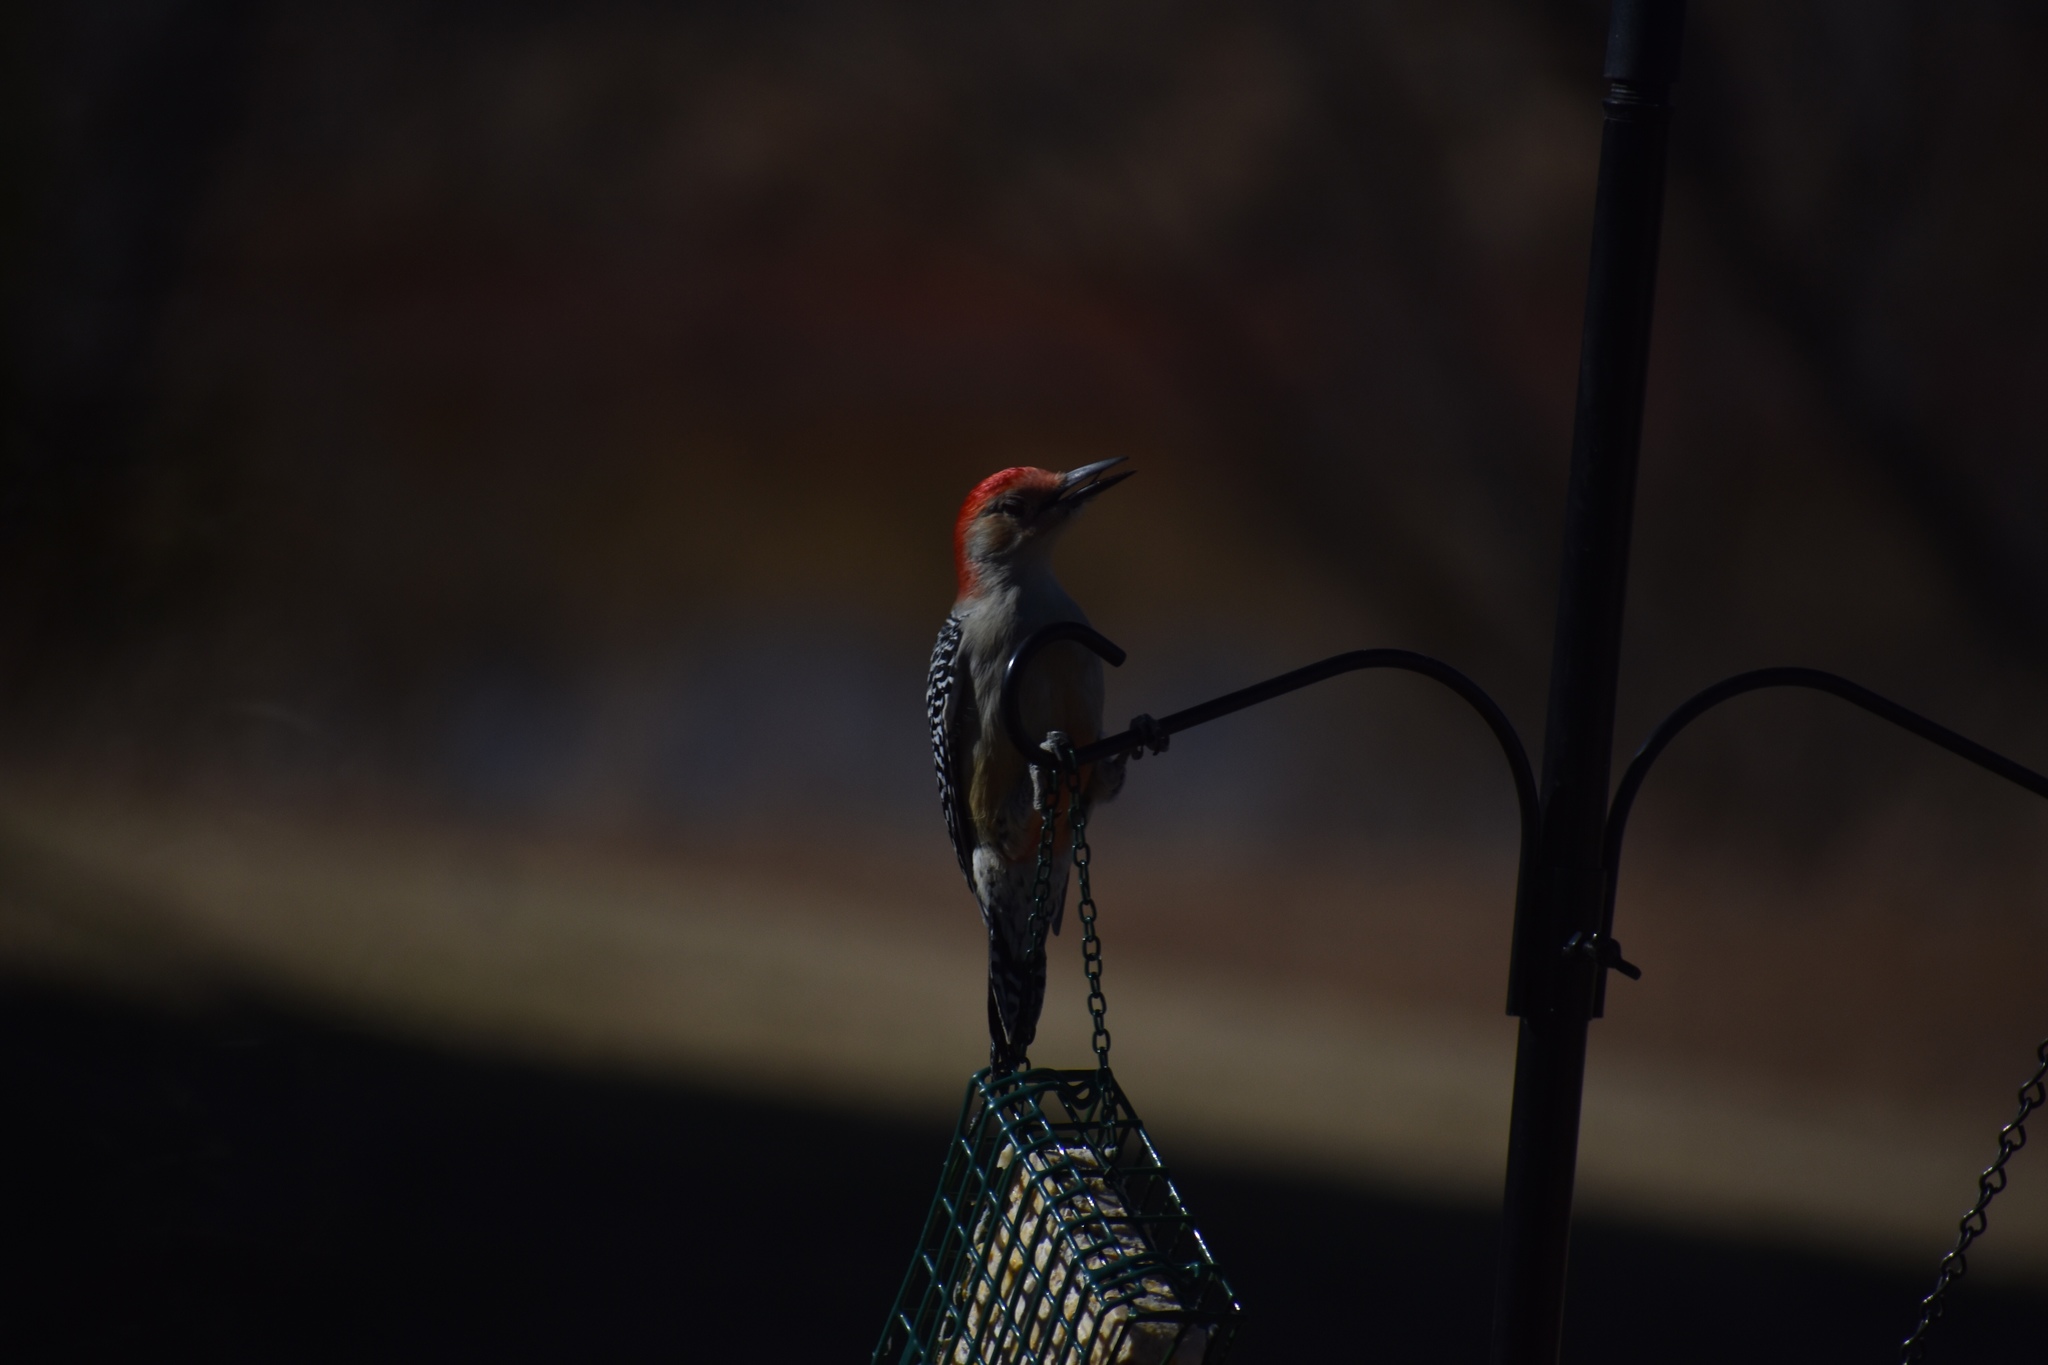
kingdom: Animalia
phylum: Chordata
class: Aves
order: Piciformes
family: Picidae
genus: Melanerpes
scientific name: Melanerpes carolinus
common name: Red-bellied woodpecker
